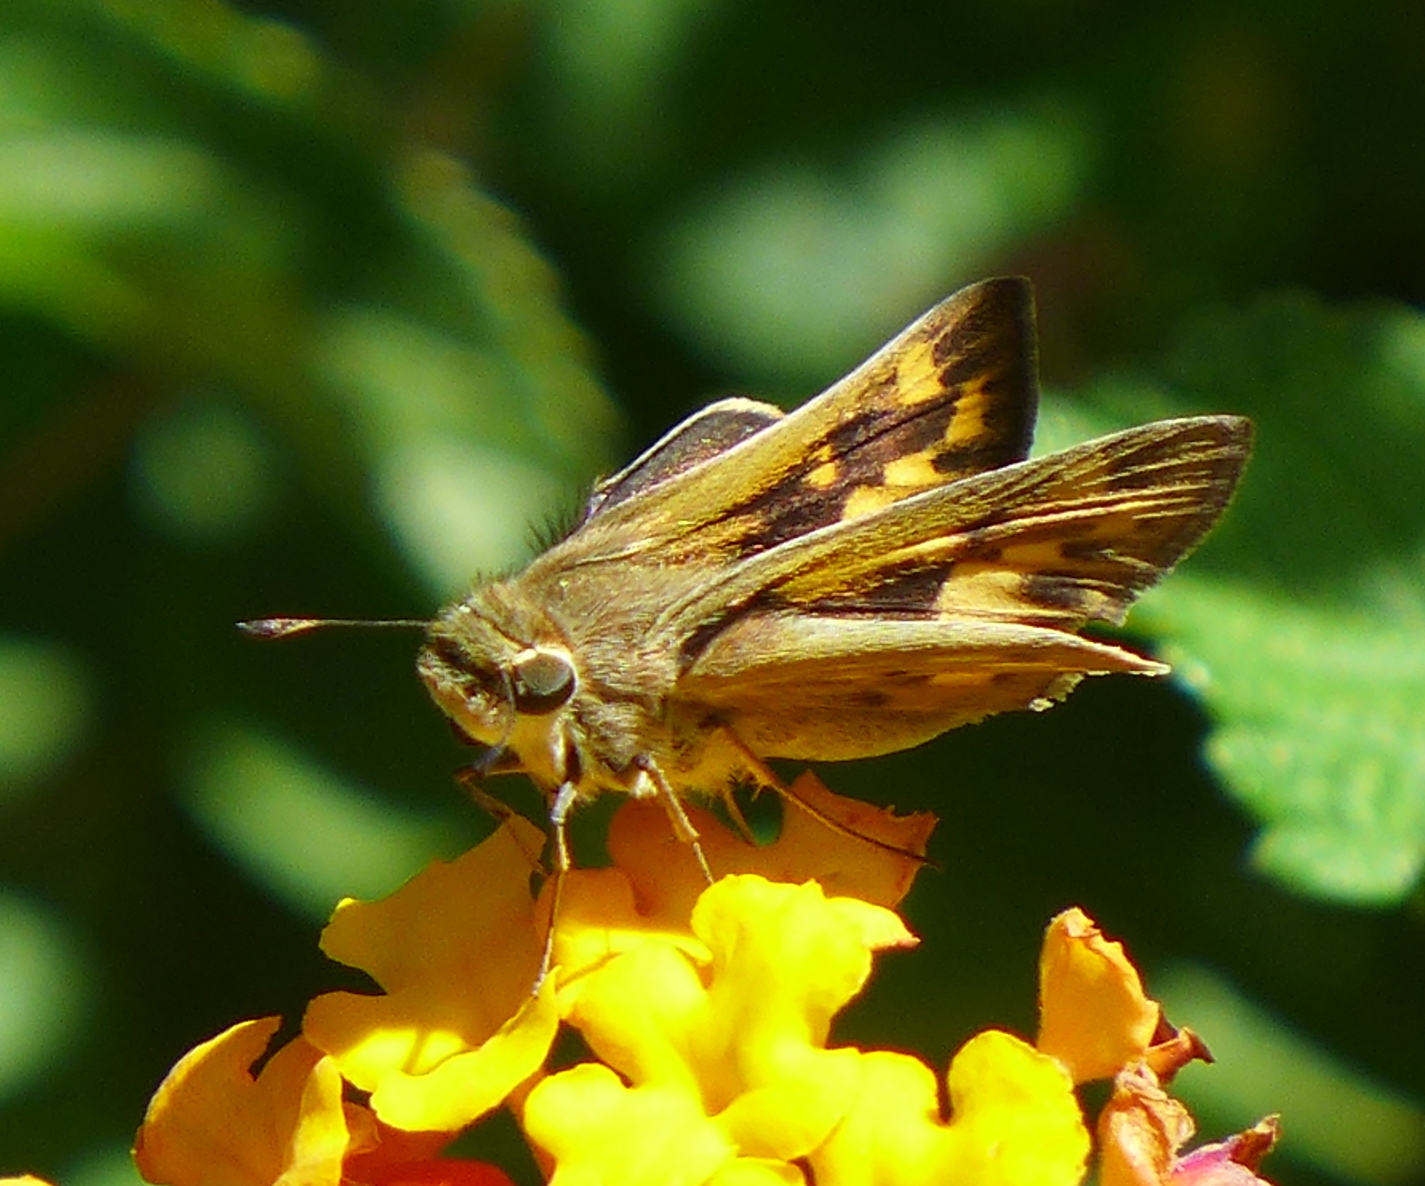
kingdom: Animalia
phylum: Arthropoda
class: Insecta
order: Lepidoptera
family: Hesperiidae
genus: Hylephila
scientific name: Hylephila phyleus
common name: Fiery skipper
